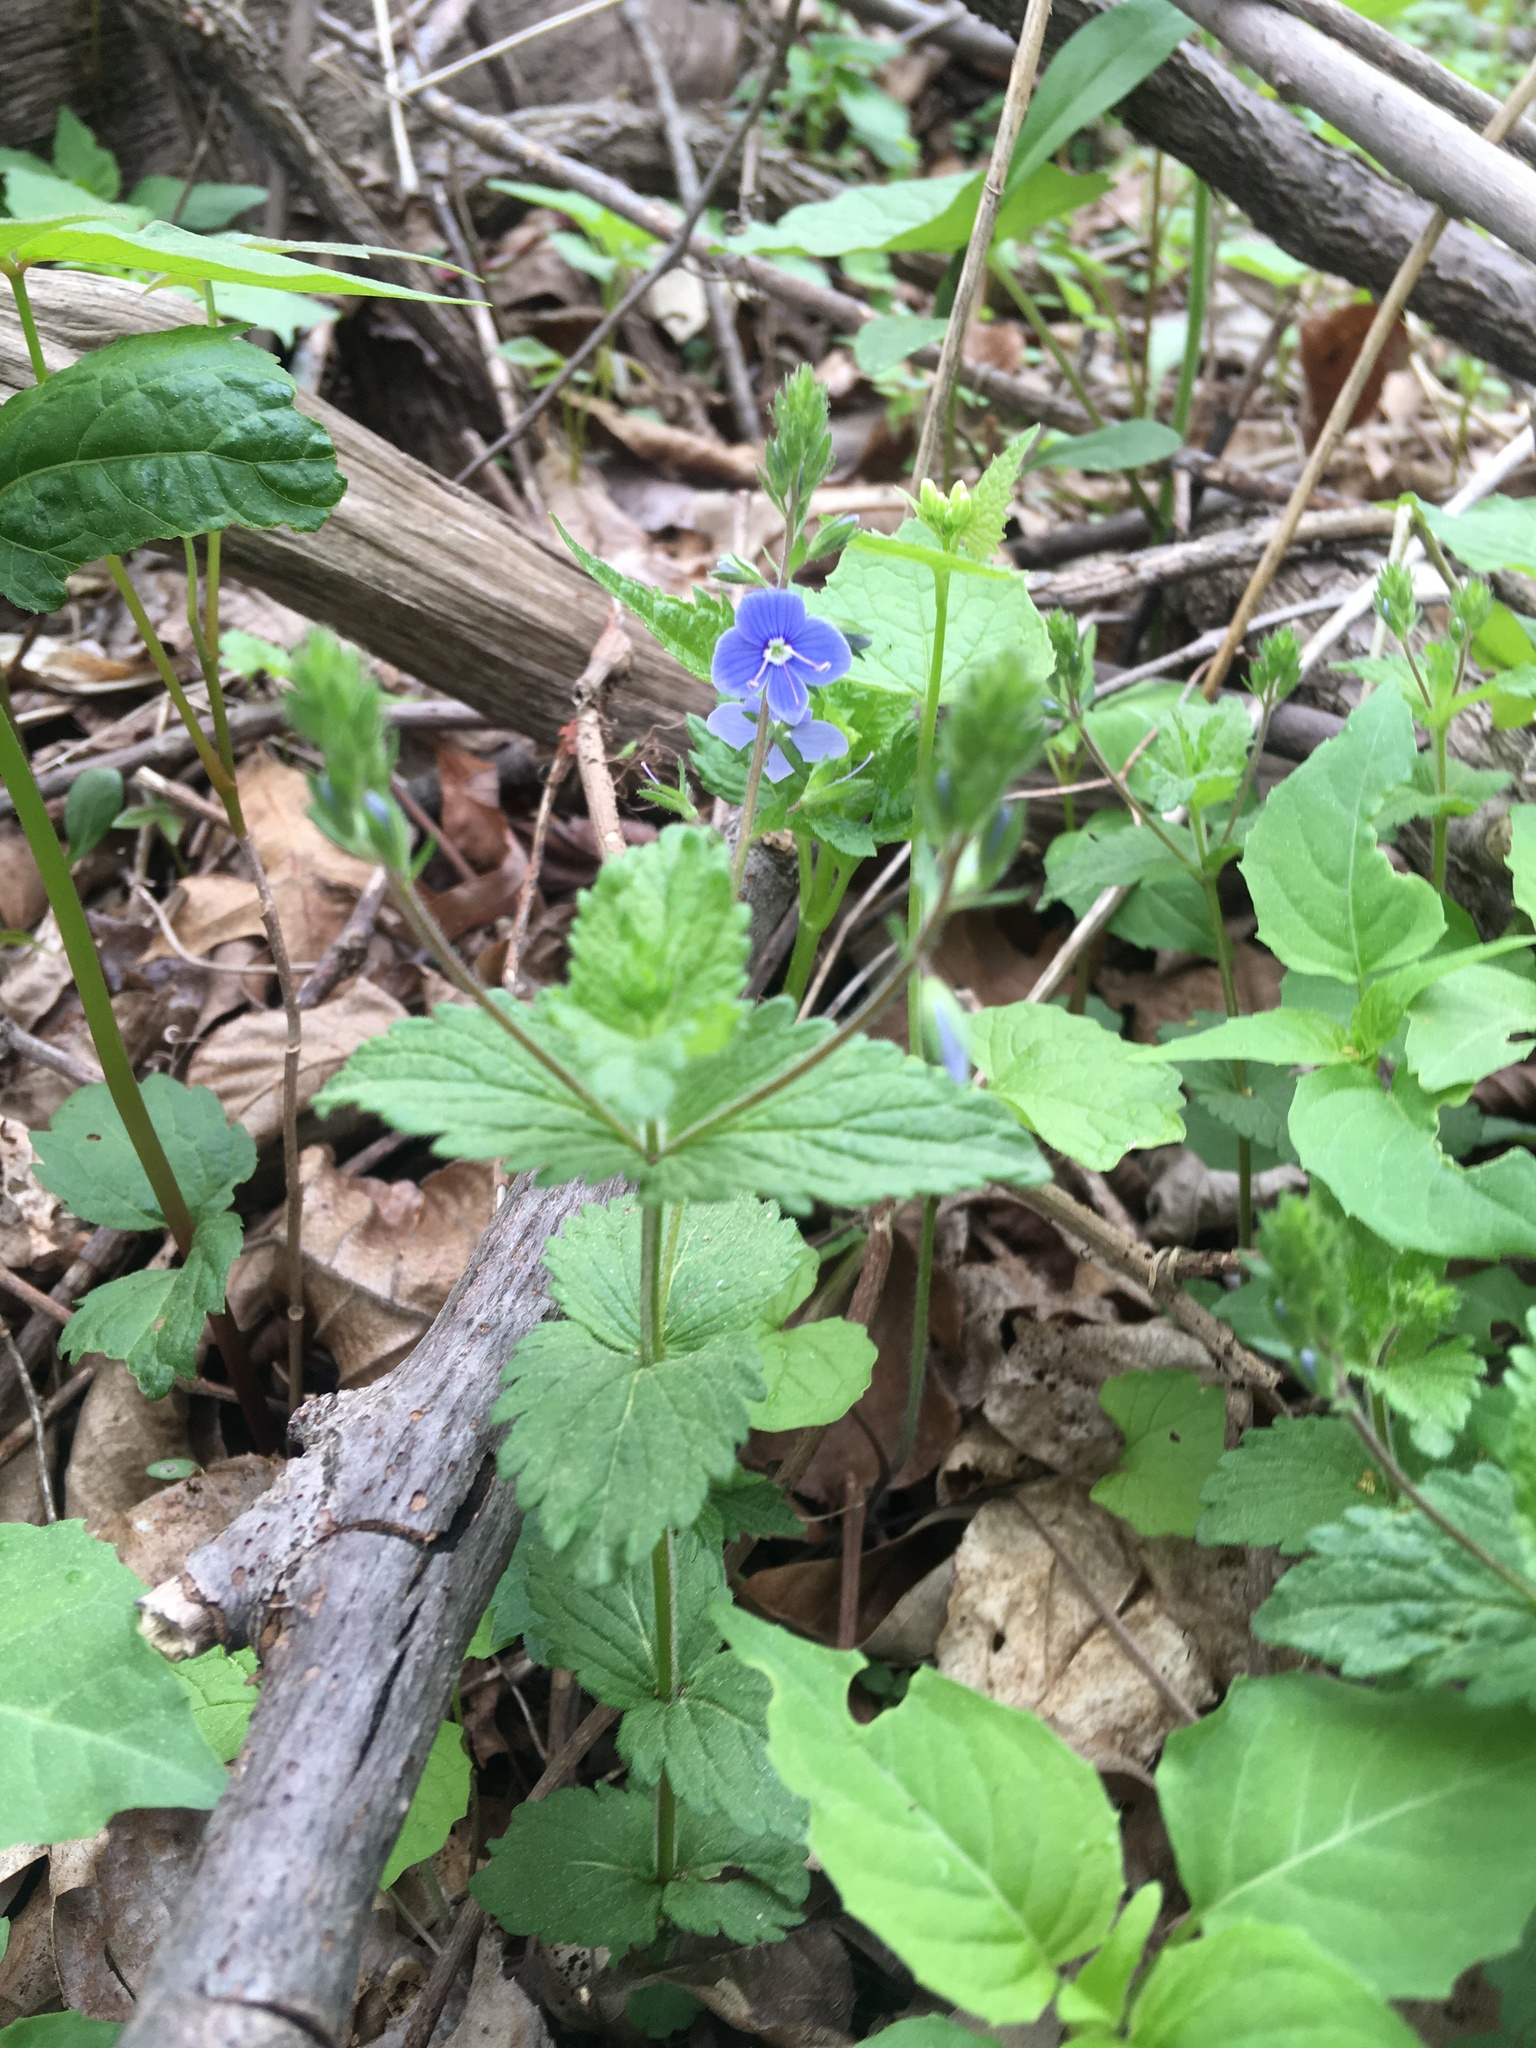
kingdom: Plantae
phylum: Tracheophyta
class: Magnoliopsida
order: Lamiales
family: Plantaginaceae
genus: Veronica
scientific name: Veronica chamaedrys
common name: Germander speedwell
